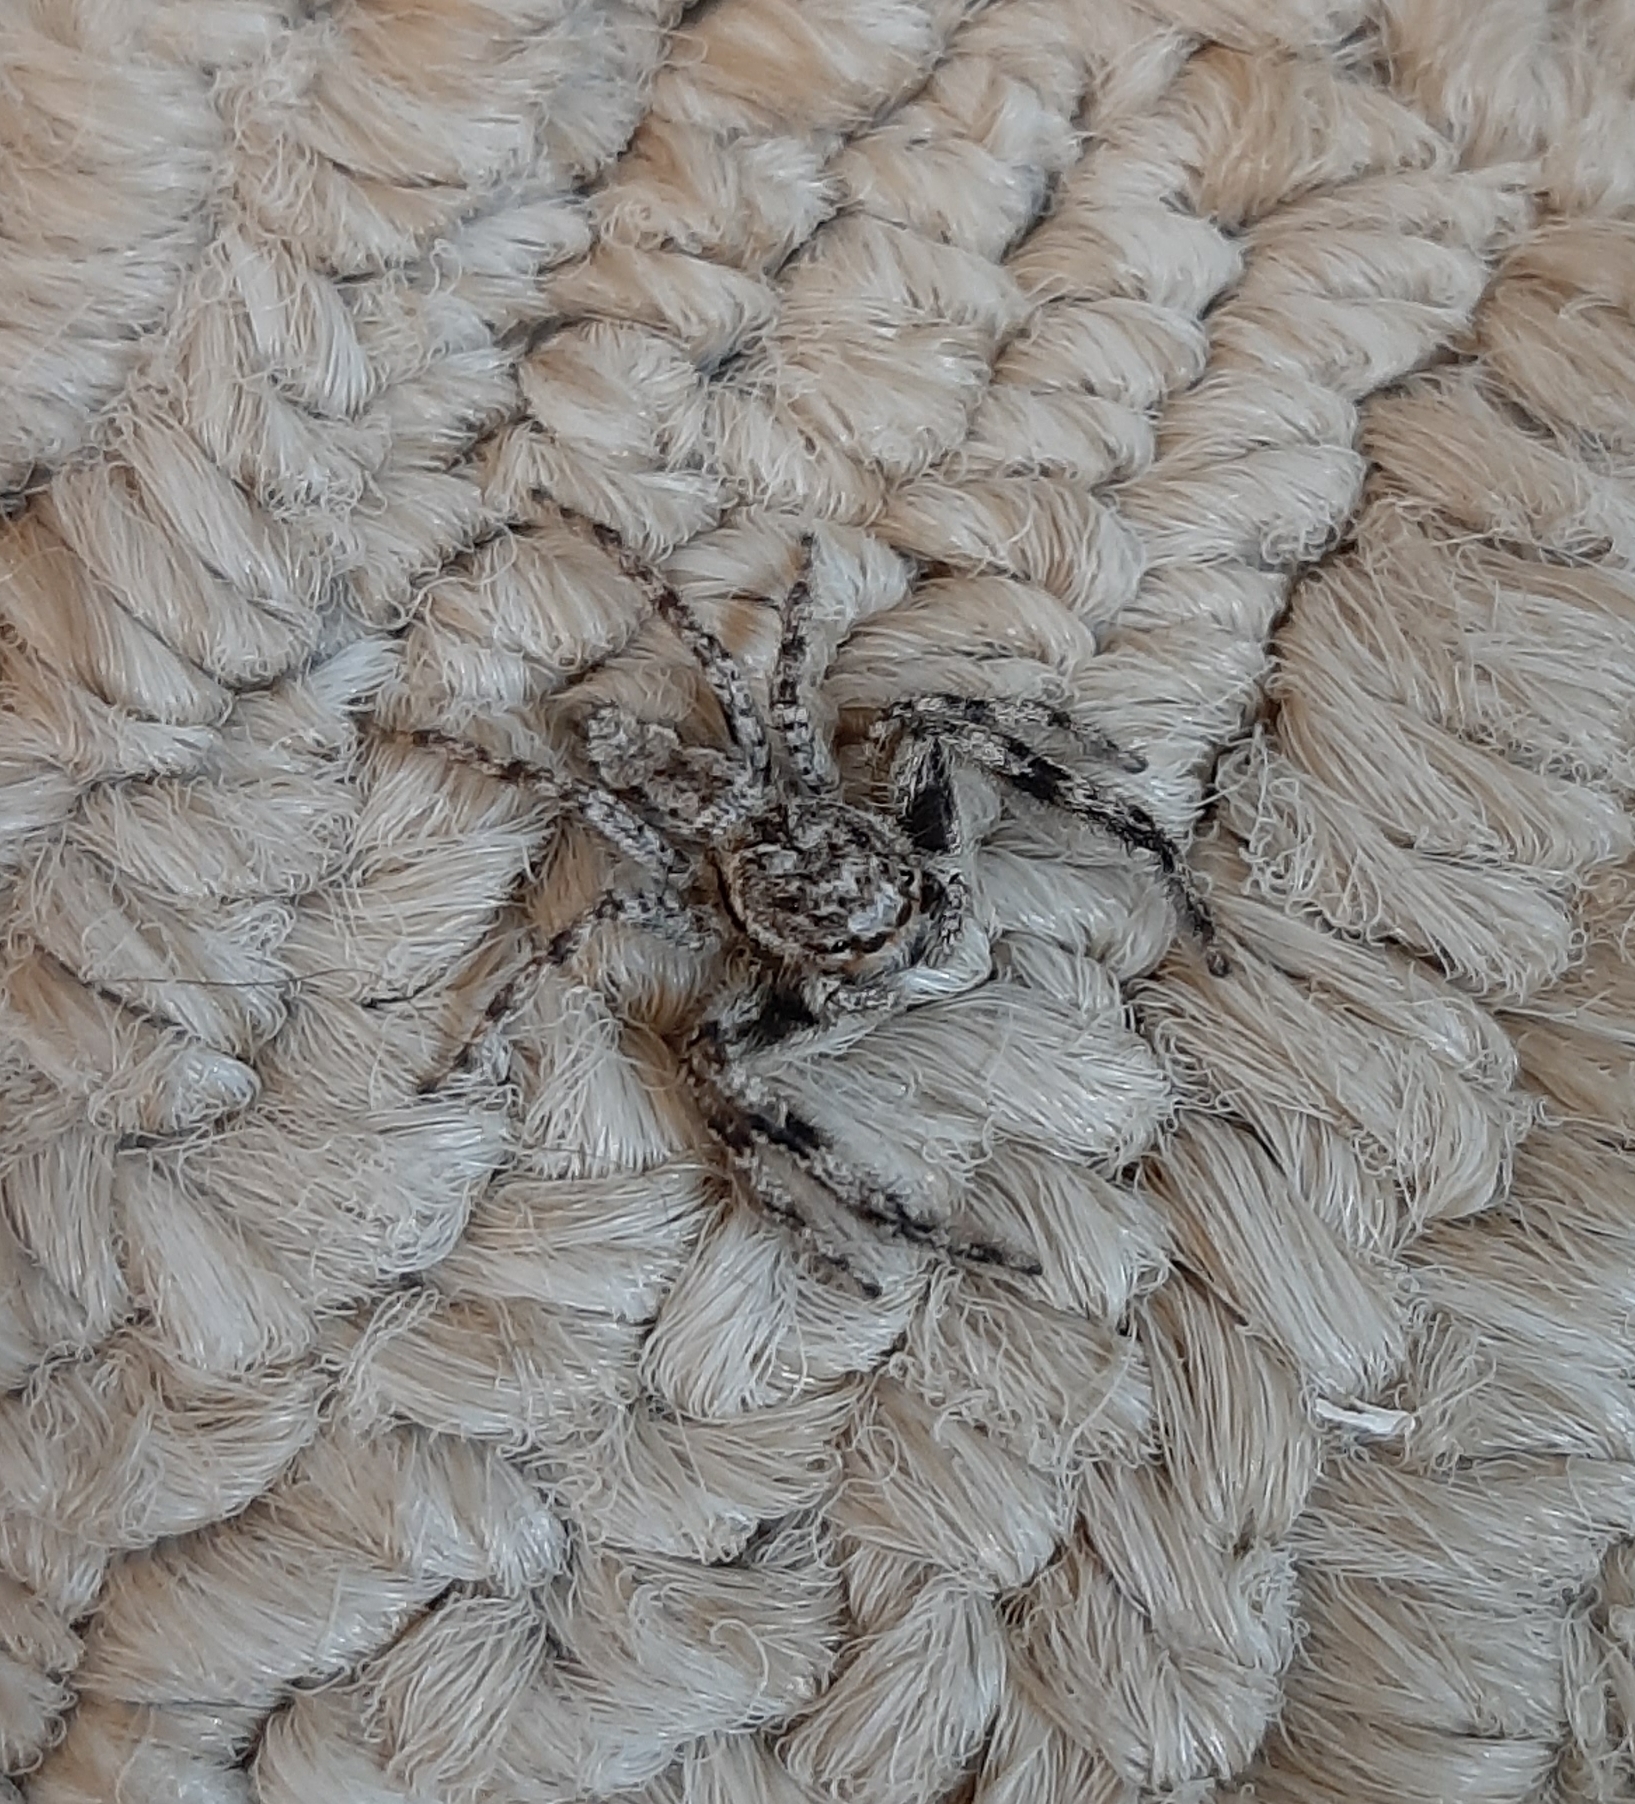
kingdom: Animalia
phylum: Arthropoda
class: Arachnida
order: Araneae
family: Salticidae
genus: Platycryptus
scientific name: Platycryptus undatus
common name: Tan jumping spider
